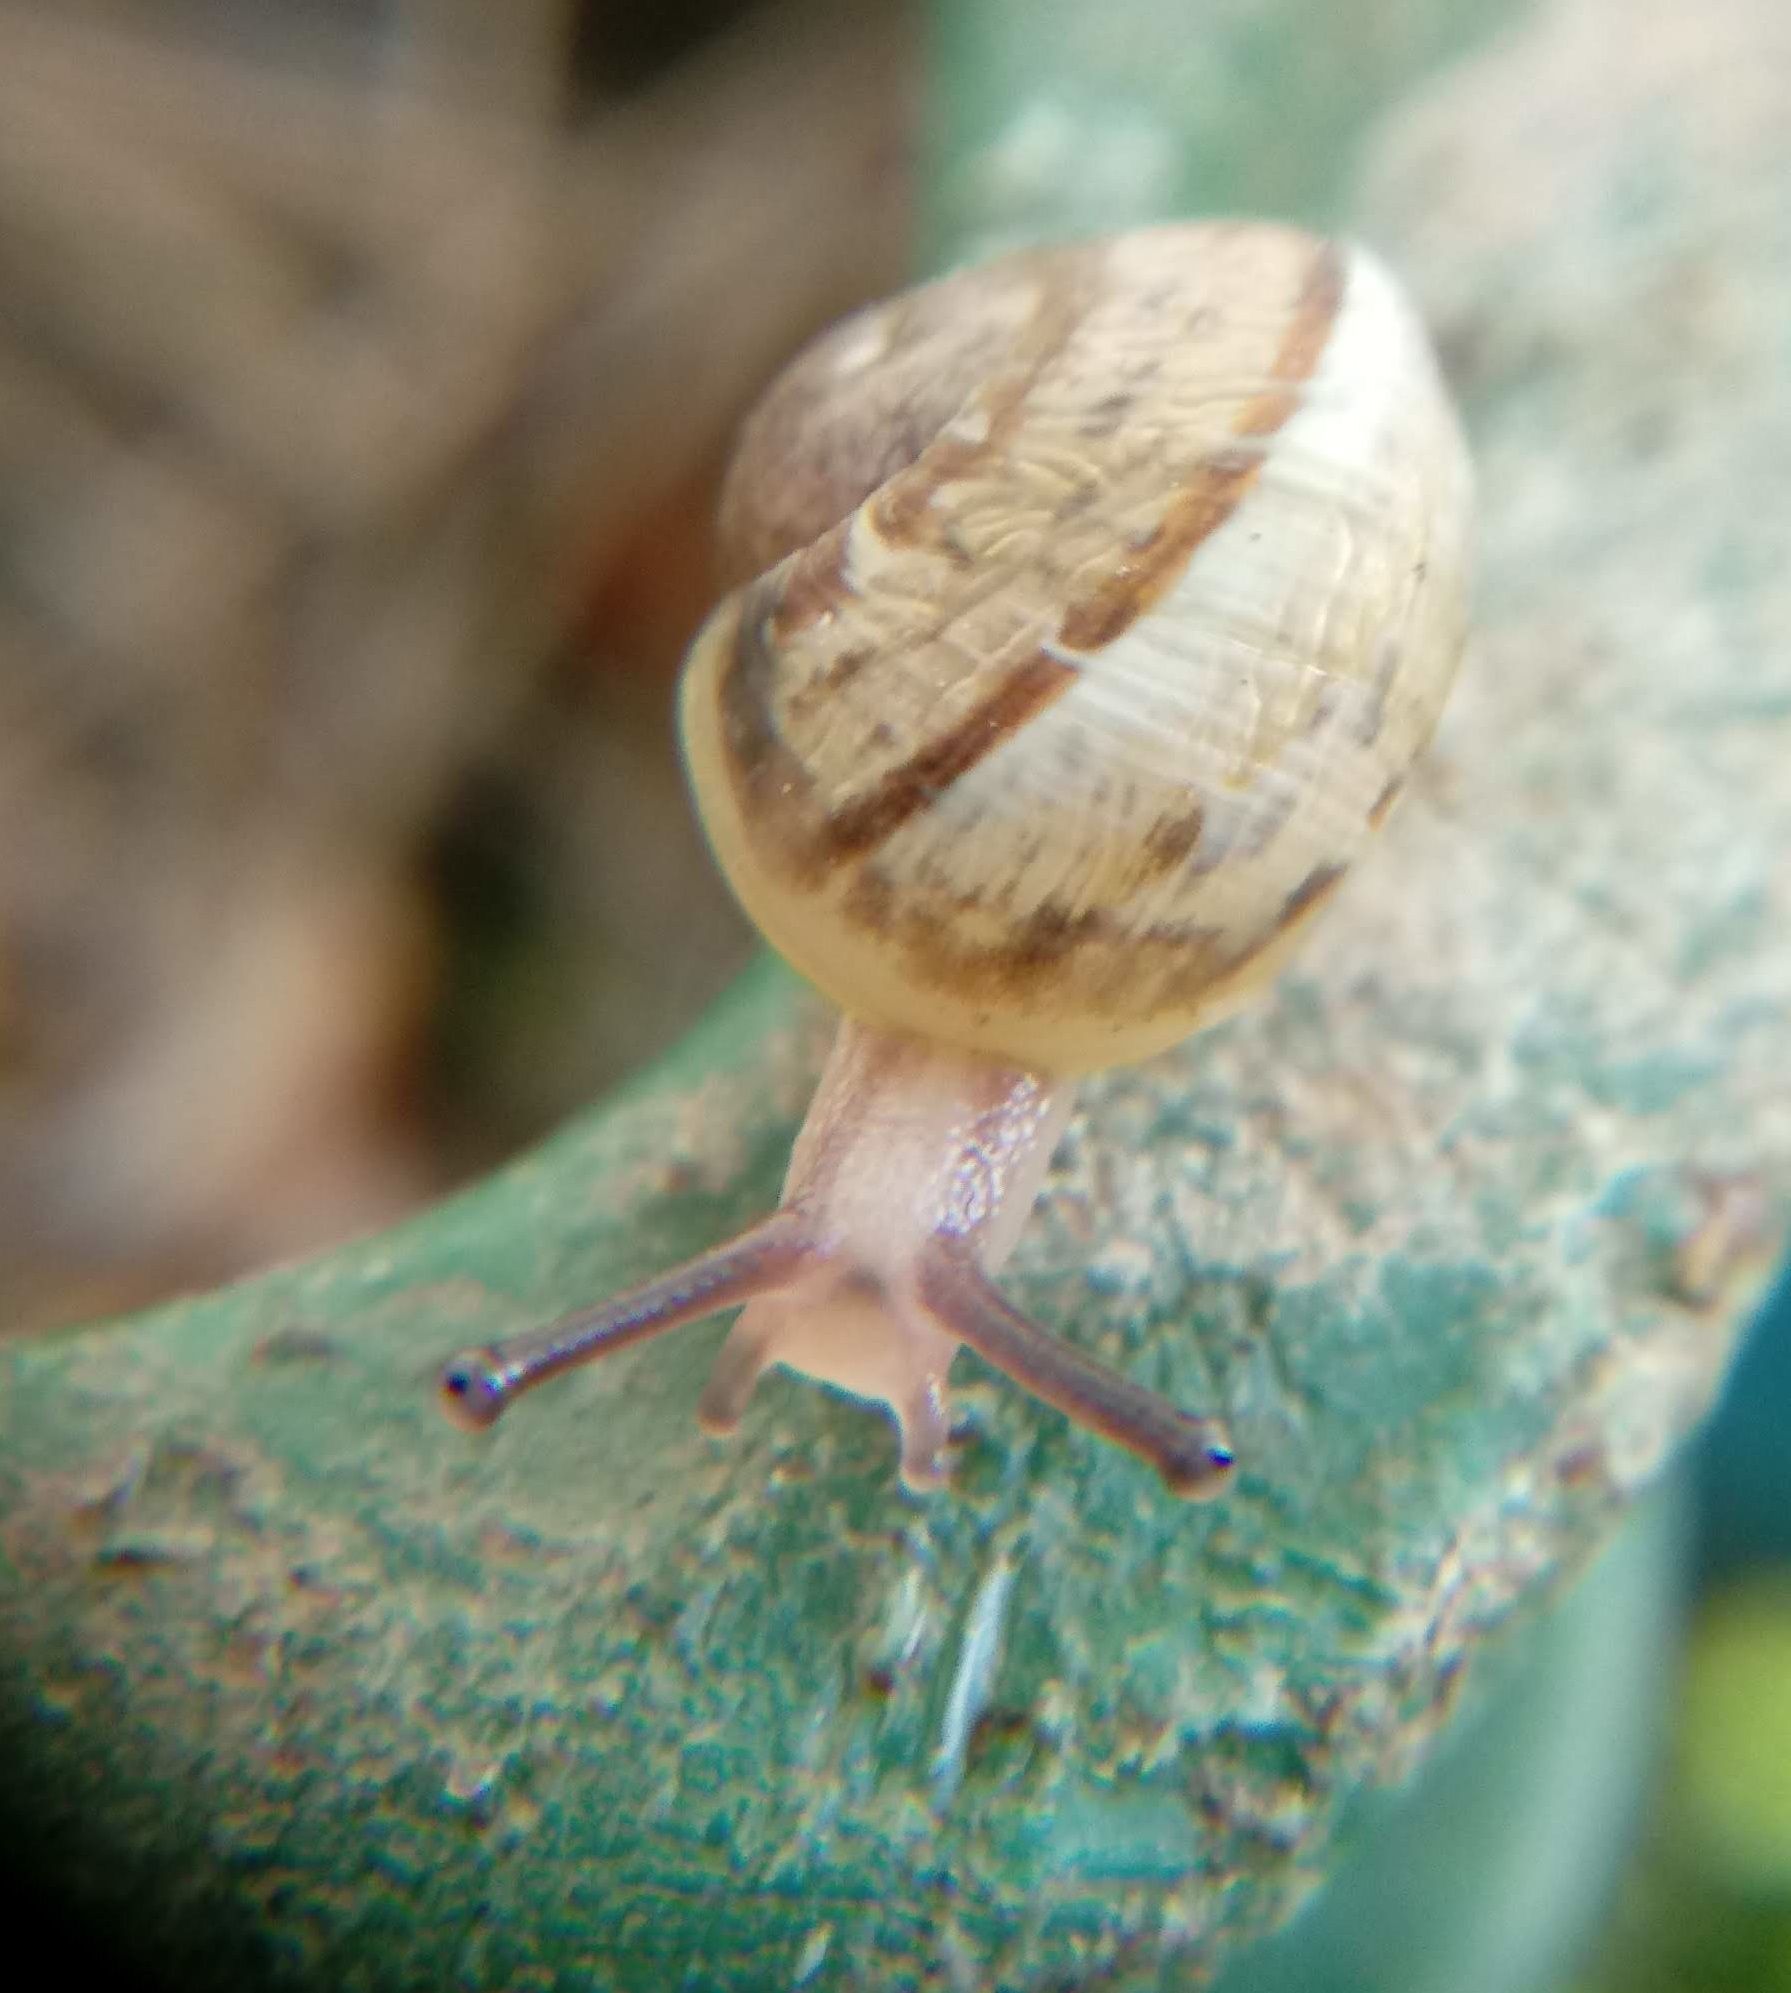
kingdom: Animalia
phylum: Mollusca
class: Gastropoda
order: Stylommatophora
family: Helicidae
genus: Cornu
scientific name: Cornu aspersum
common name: Brown garden snail
